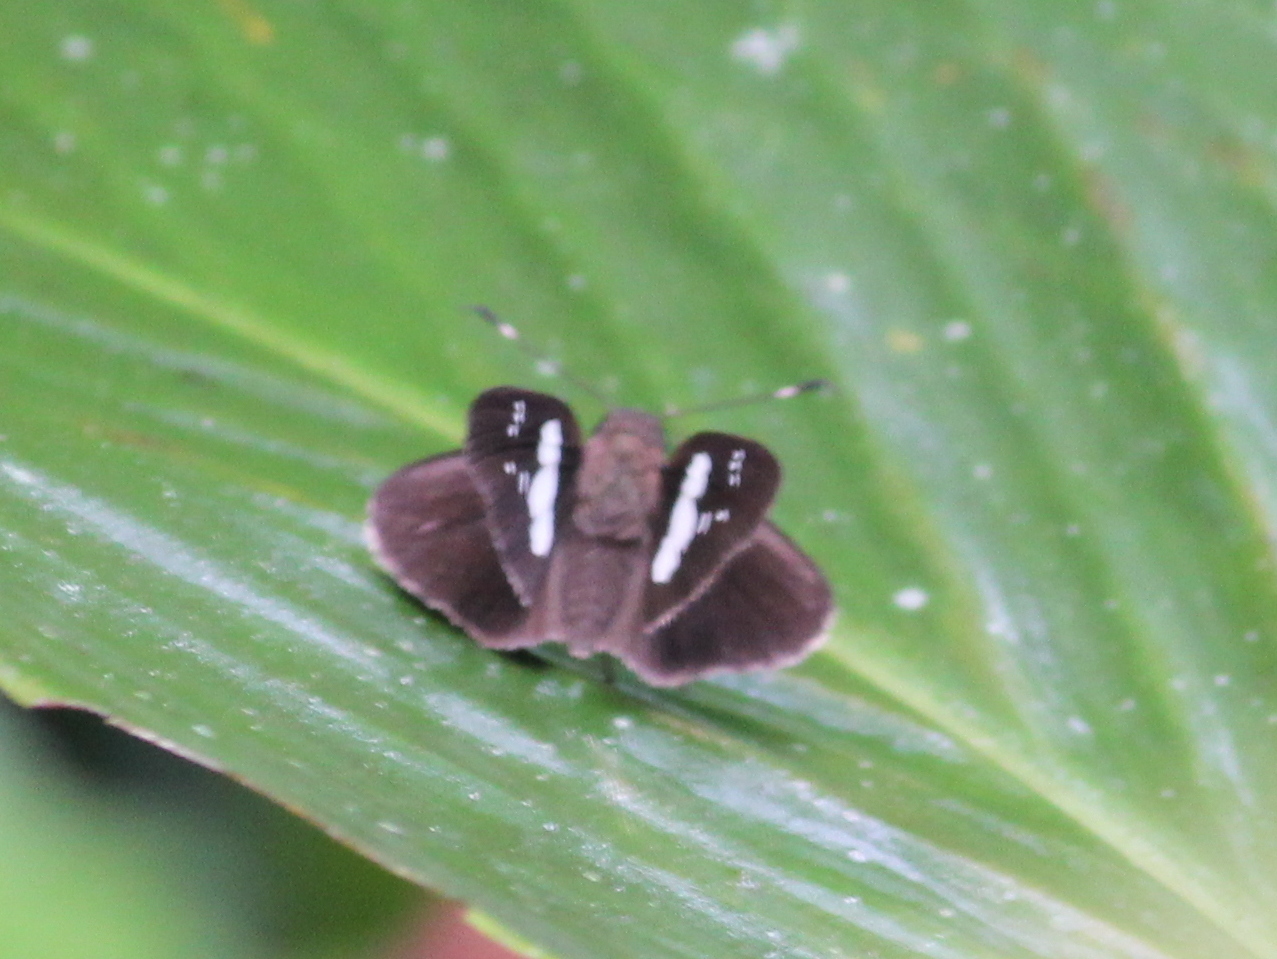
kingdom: Animalia
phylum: Arthropoda
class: Insecta
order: Lepidoptera
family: Hesperiidae
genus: Notocrypta
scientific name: Notocrypta curvifascia
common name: Restricted demon
